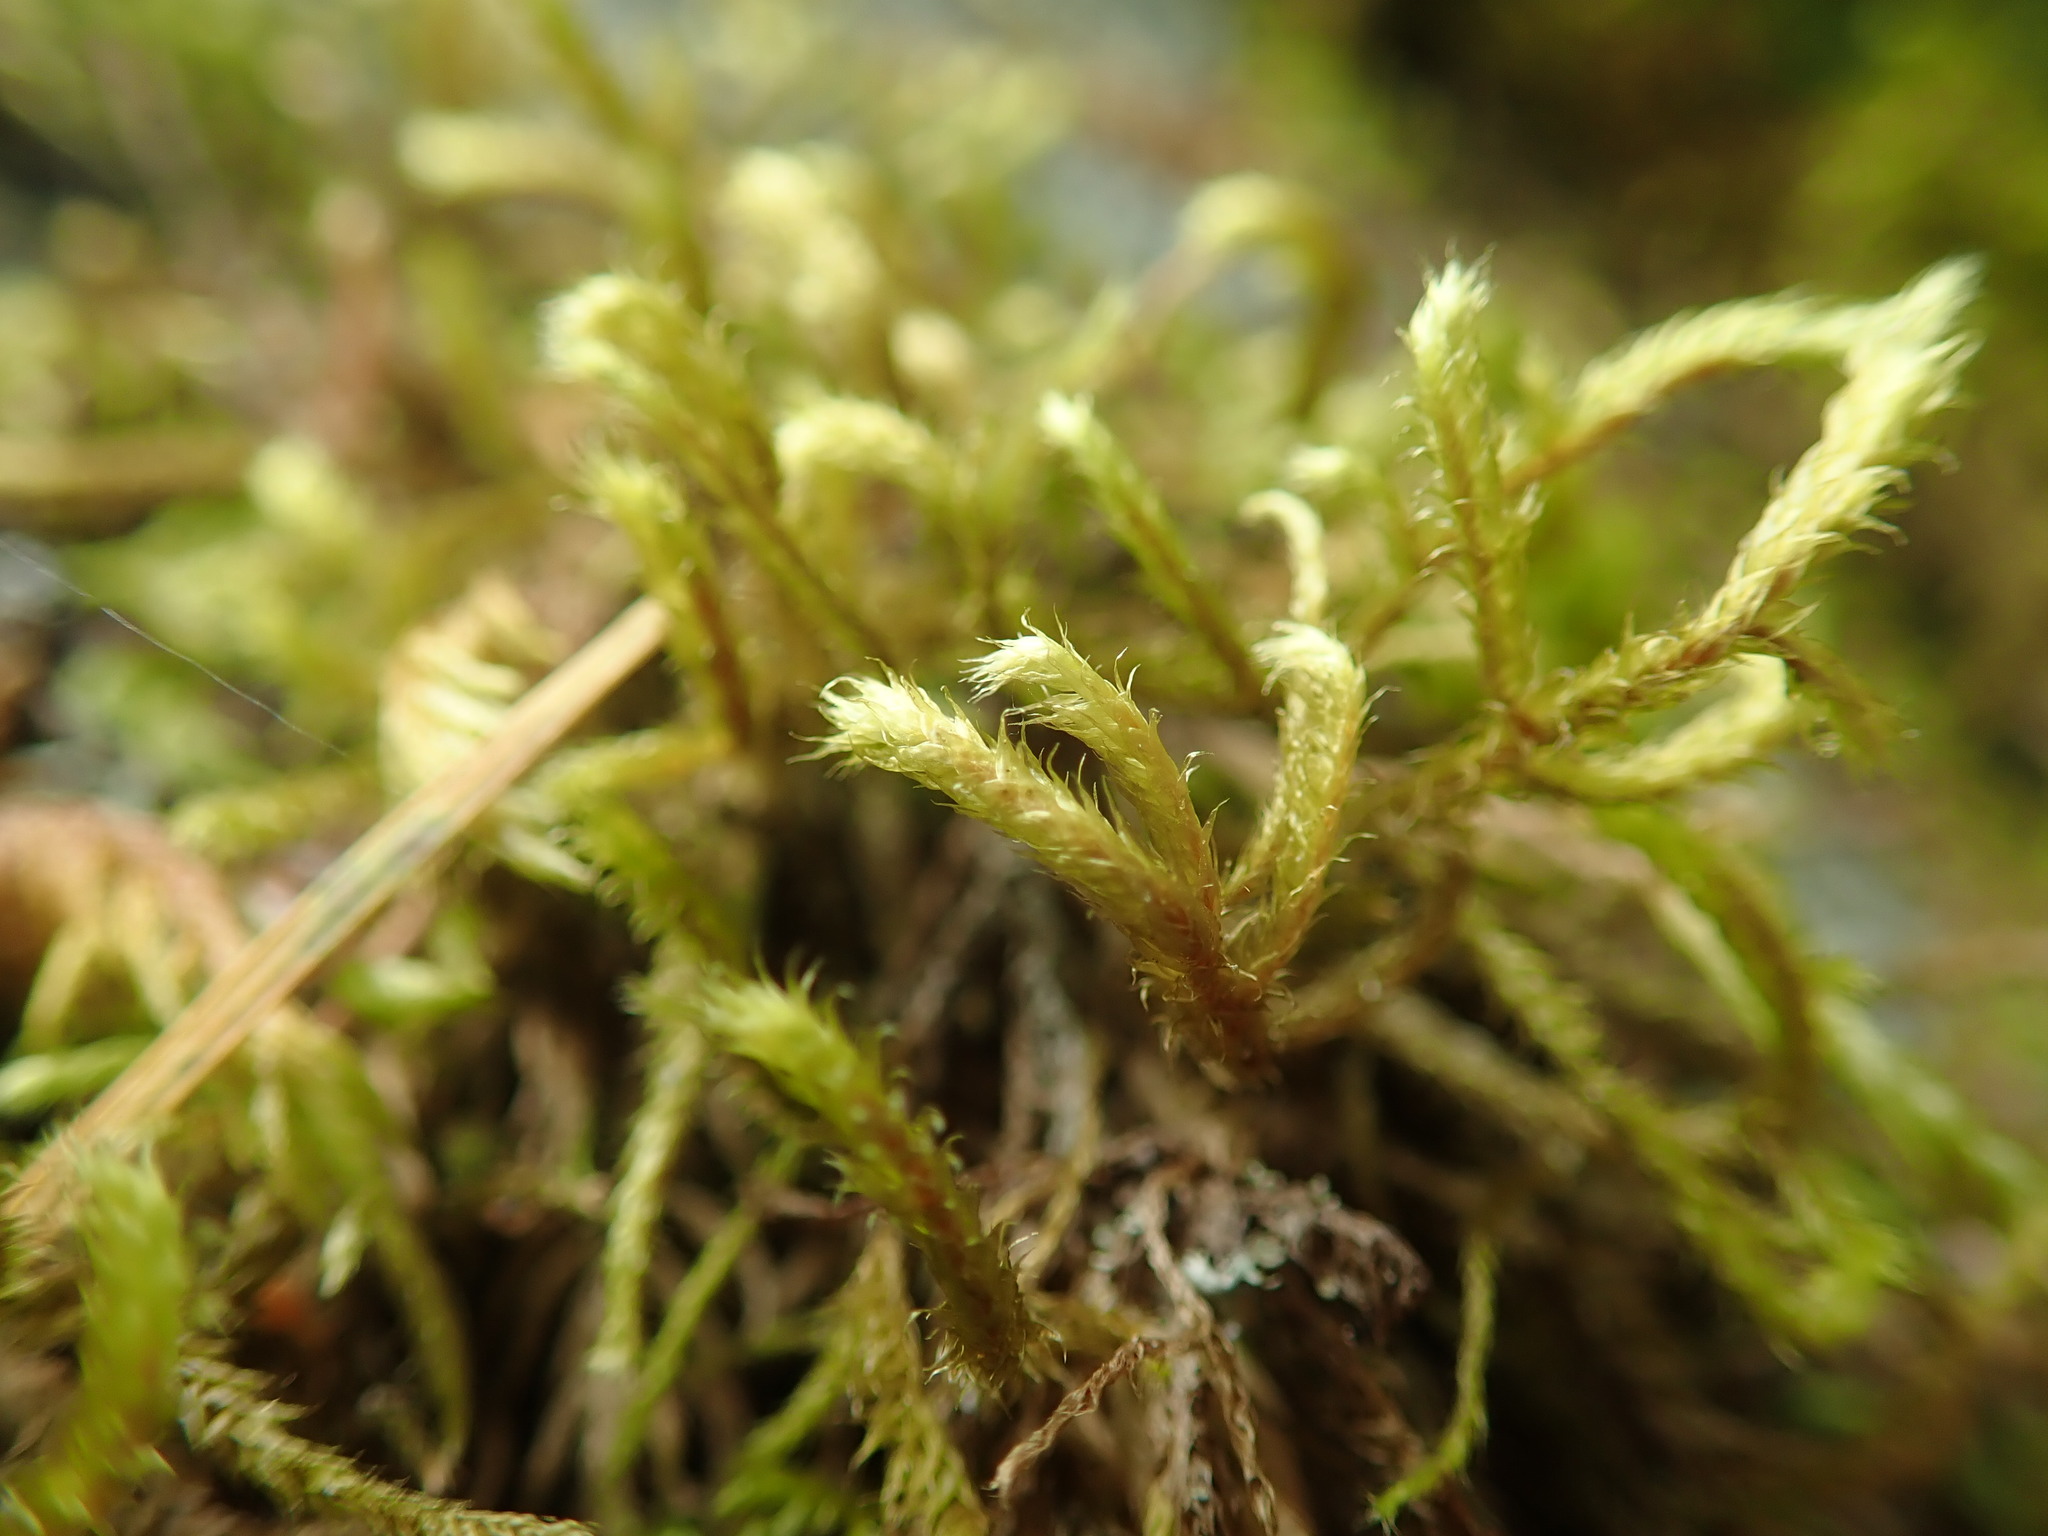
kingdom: Plantae
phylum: Bryophyta
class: Bryopsida
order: Hypnales
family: Antitrichiaceae
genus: Antitrichia
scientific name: Antitrichia curtipendula
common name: Pendulous wing-moss
